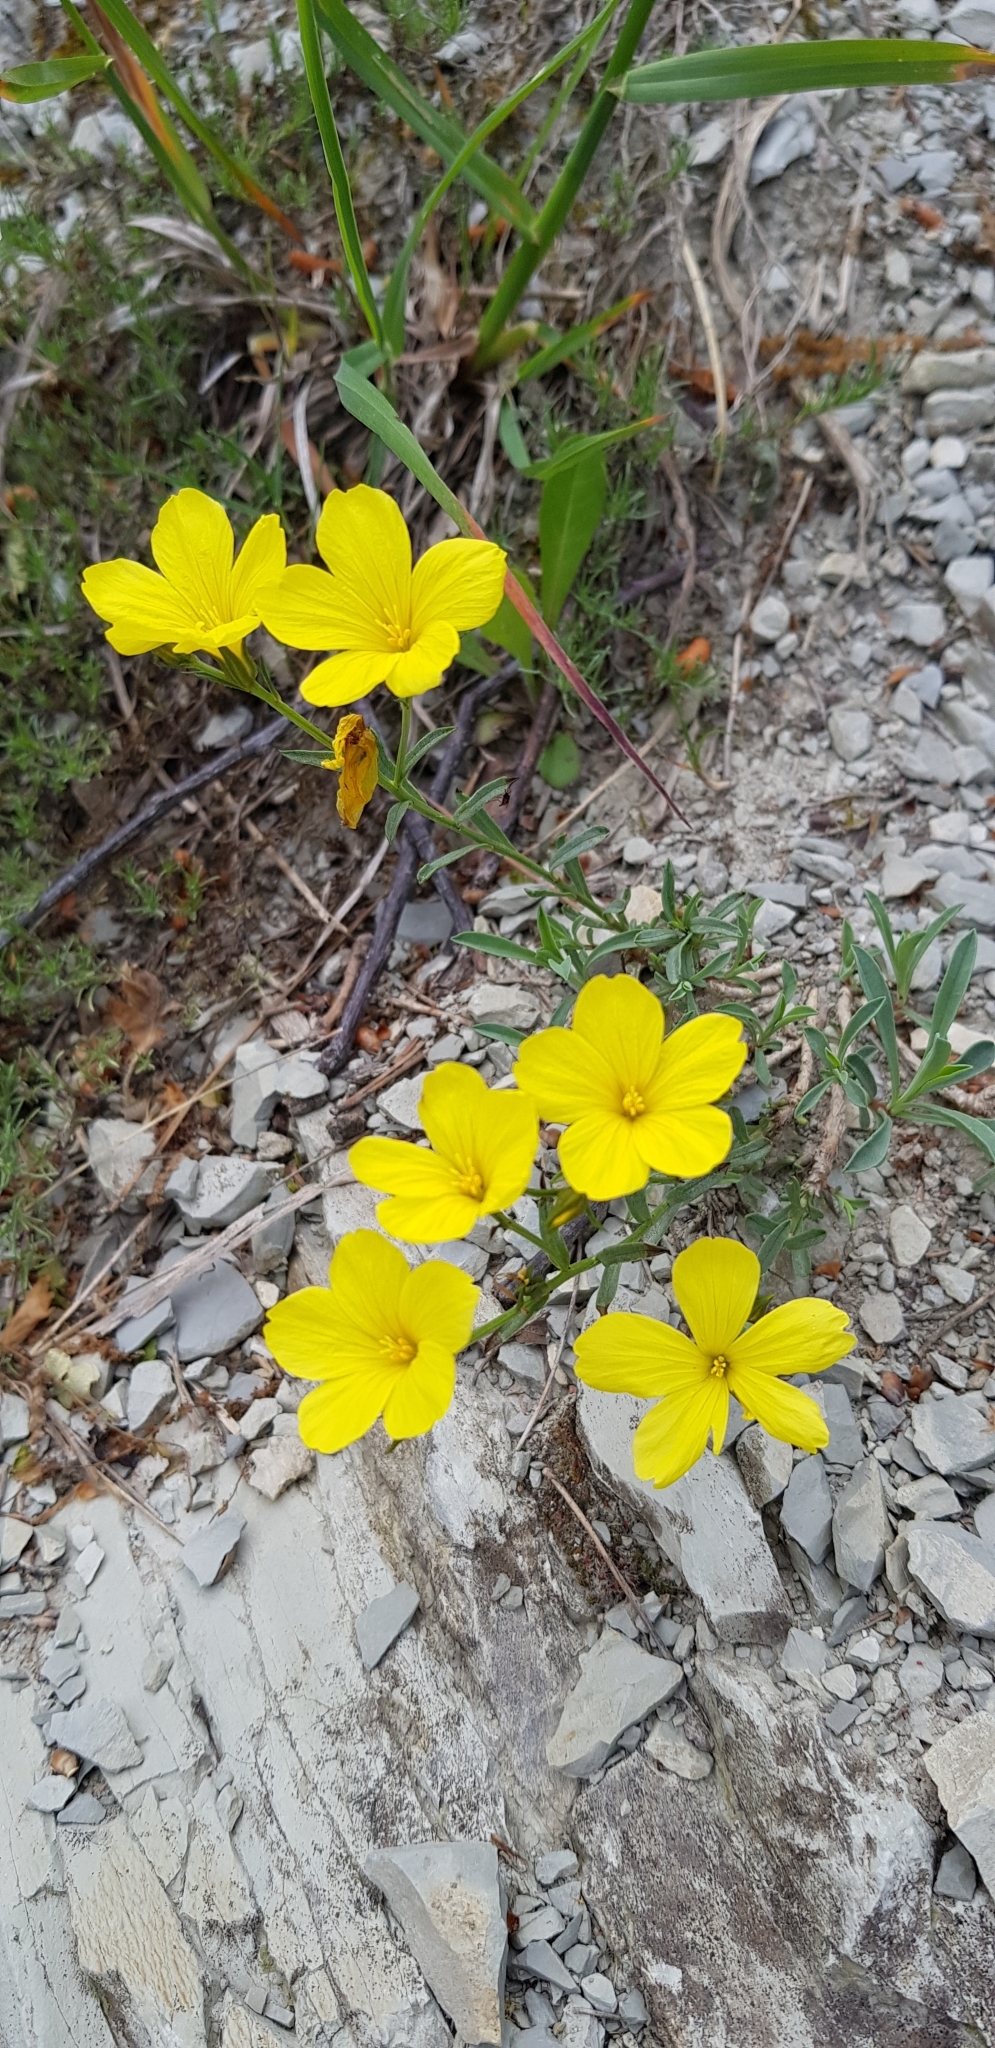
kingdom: Plantae
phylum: Tracheophyta
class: Magnoliopsida
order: Malpighiales
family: Linaceae
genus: Linum
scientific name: Linum tauricum
